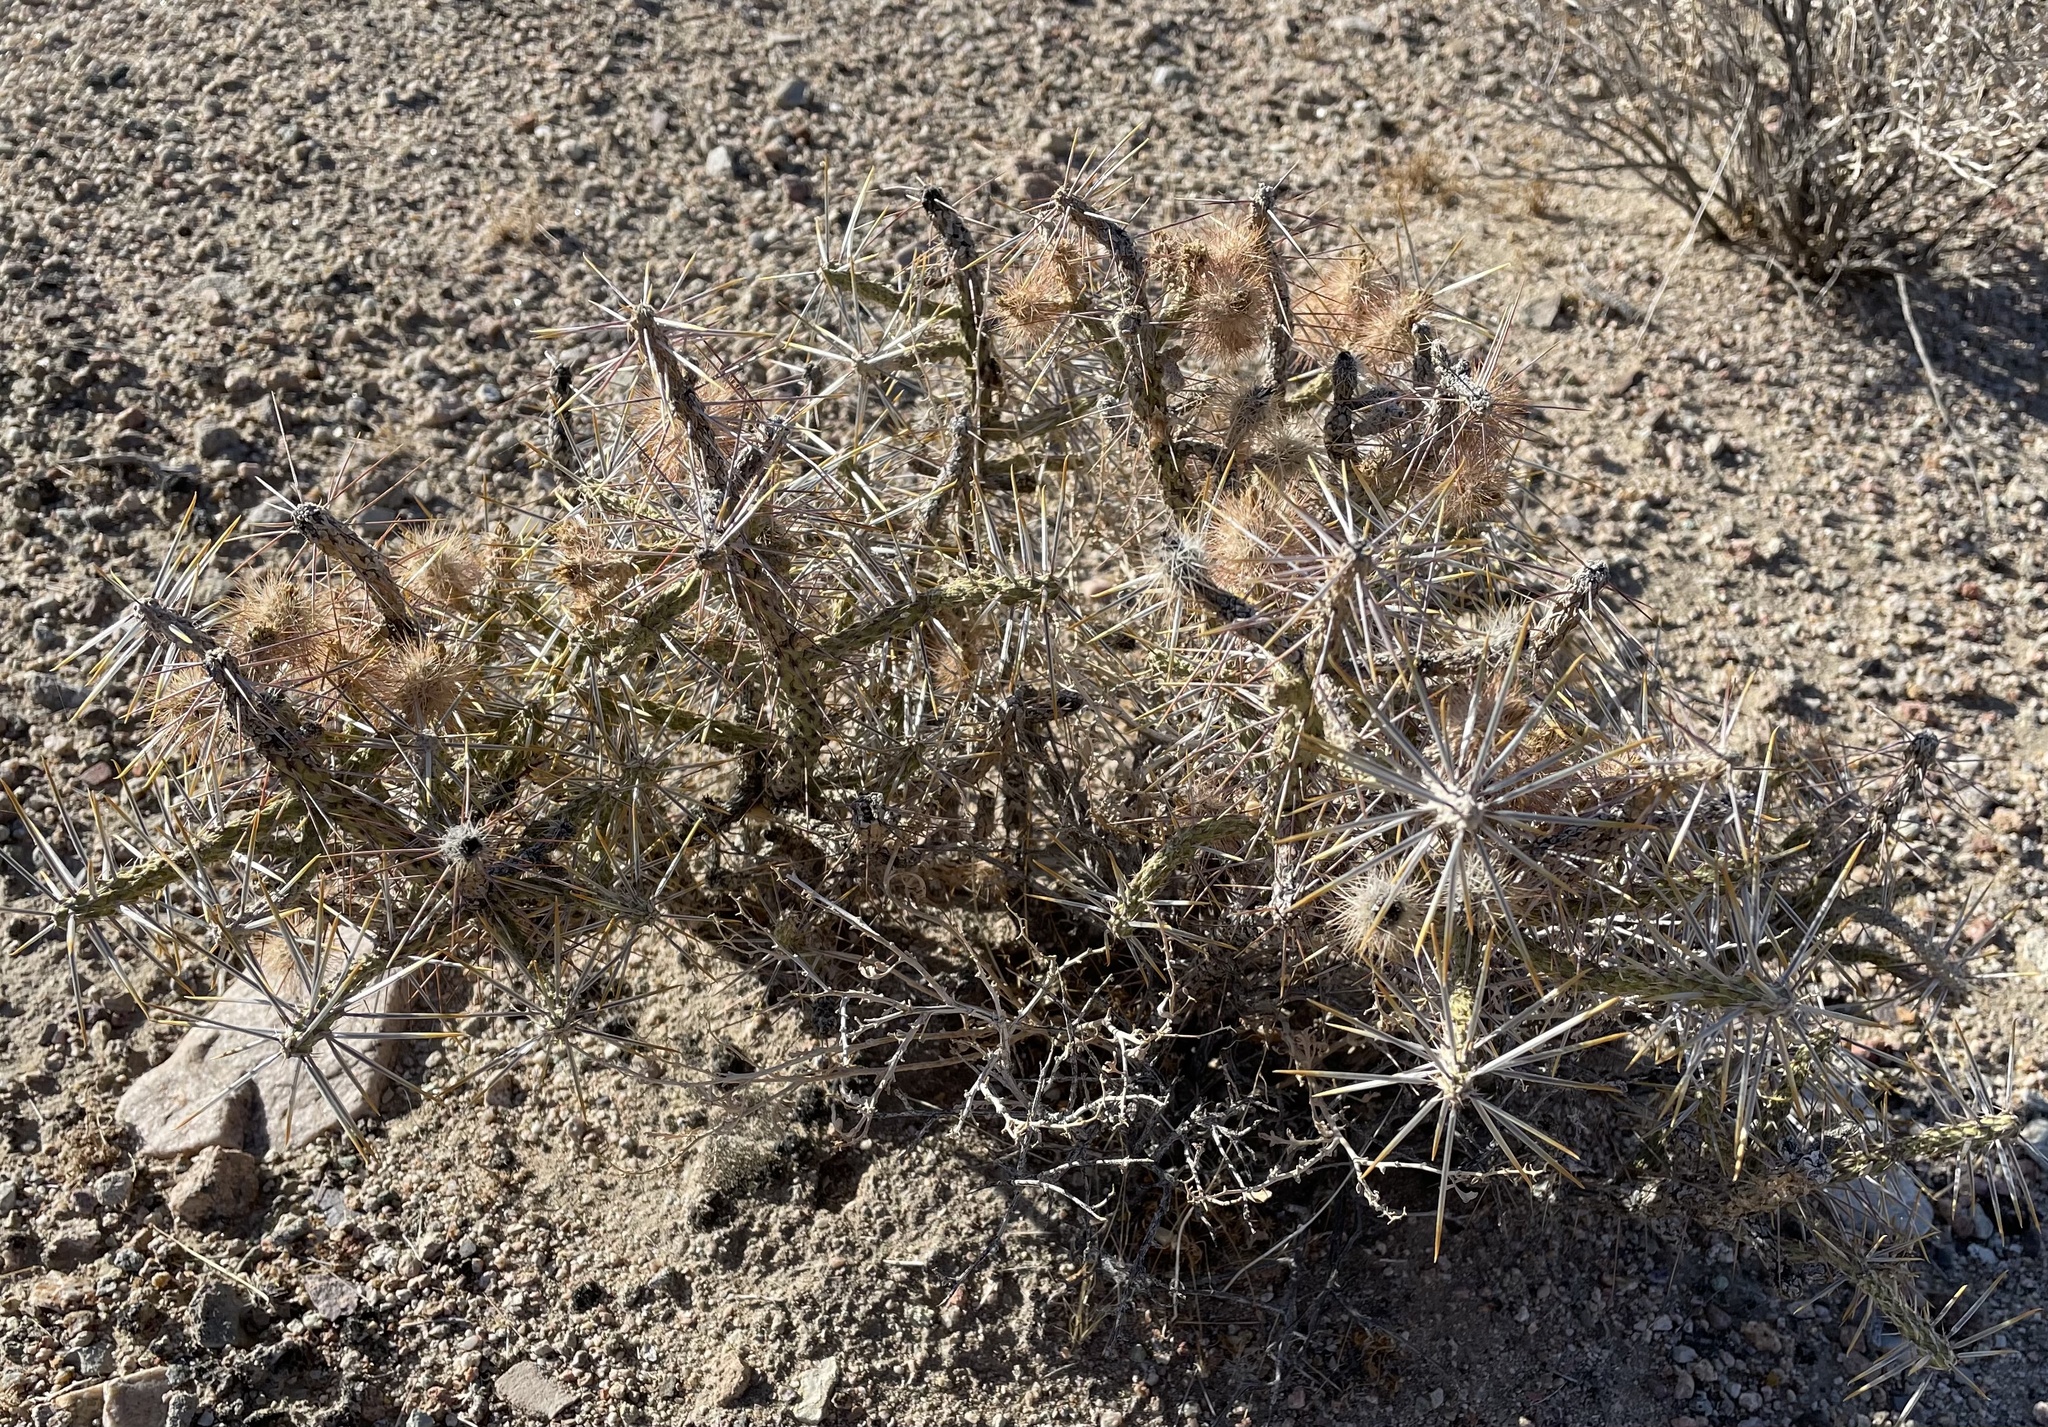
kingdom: Plantae
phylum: Tracheophyta
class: Magnoliopsida
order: Caryophyllales
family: Cactaceae
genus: Cylindropuntia
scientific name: Cylindropuntia ramosissima
